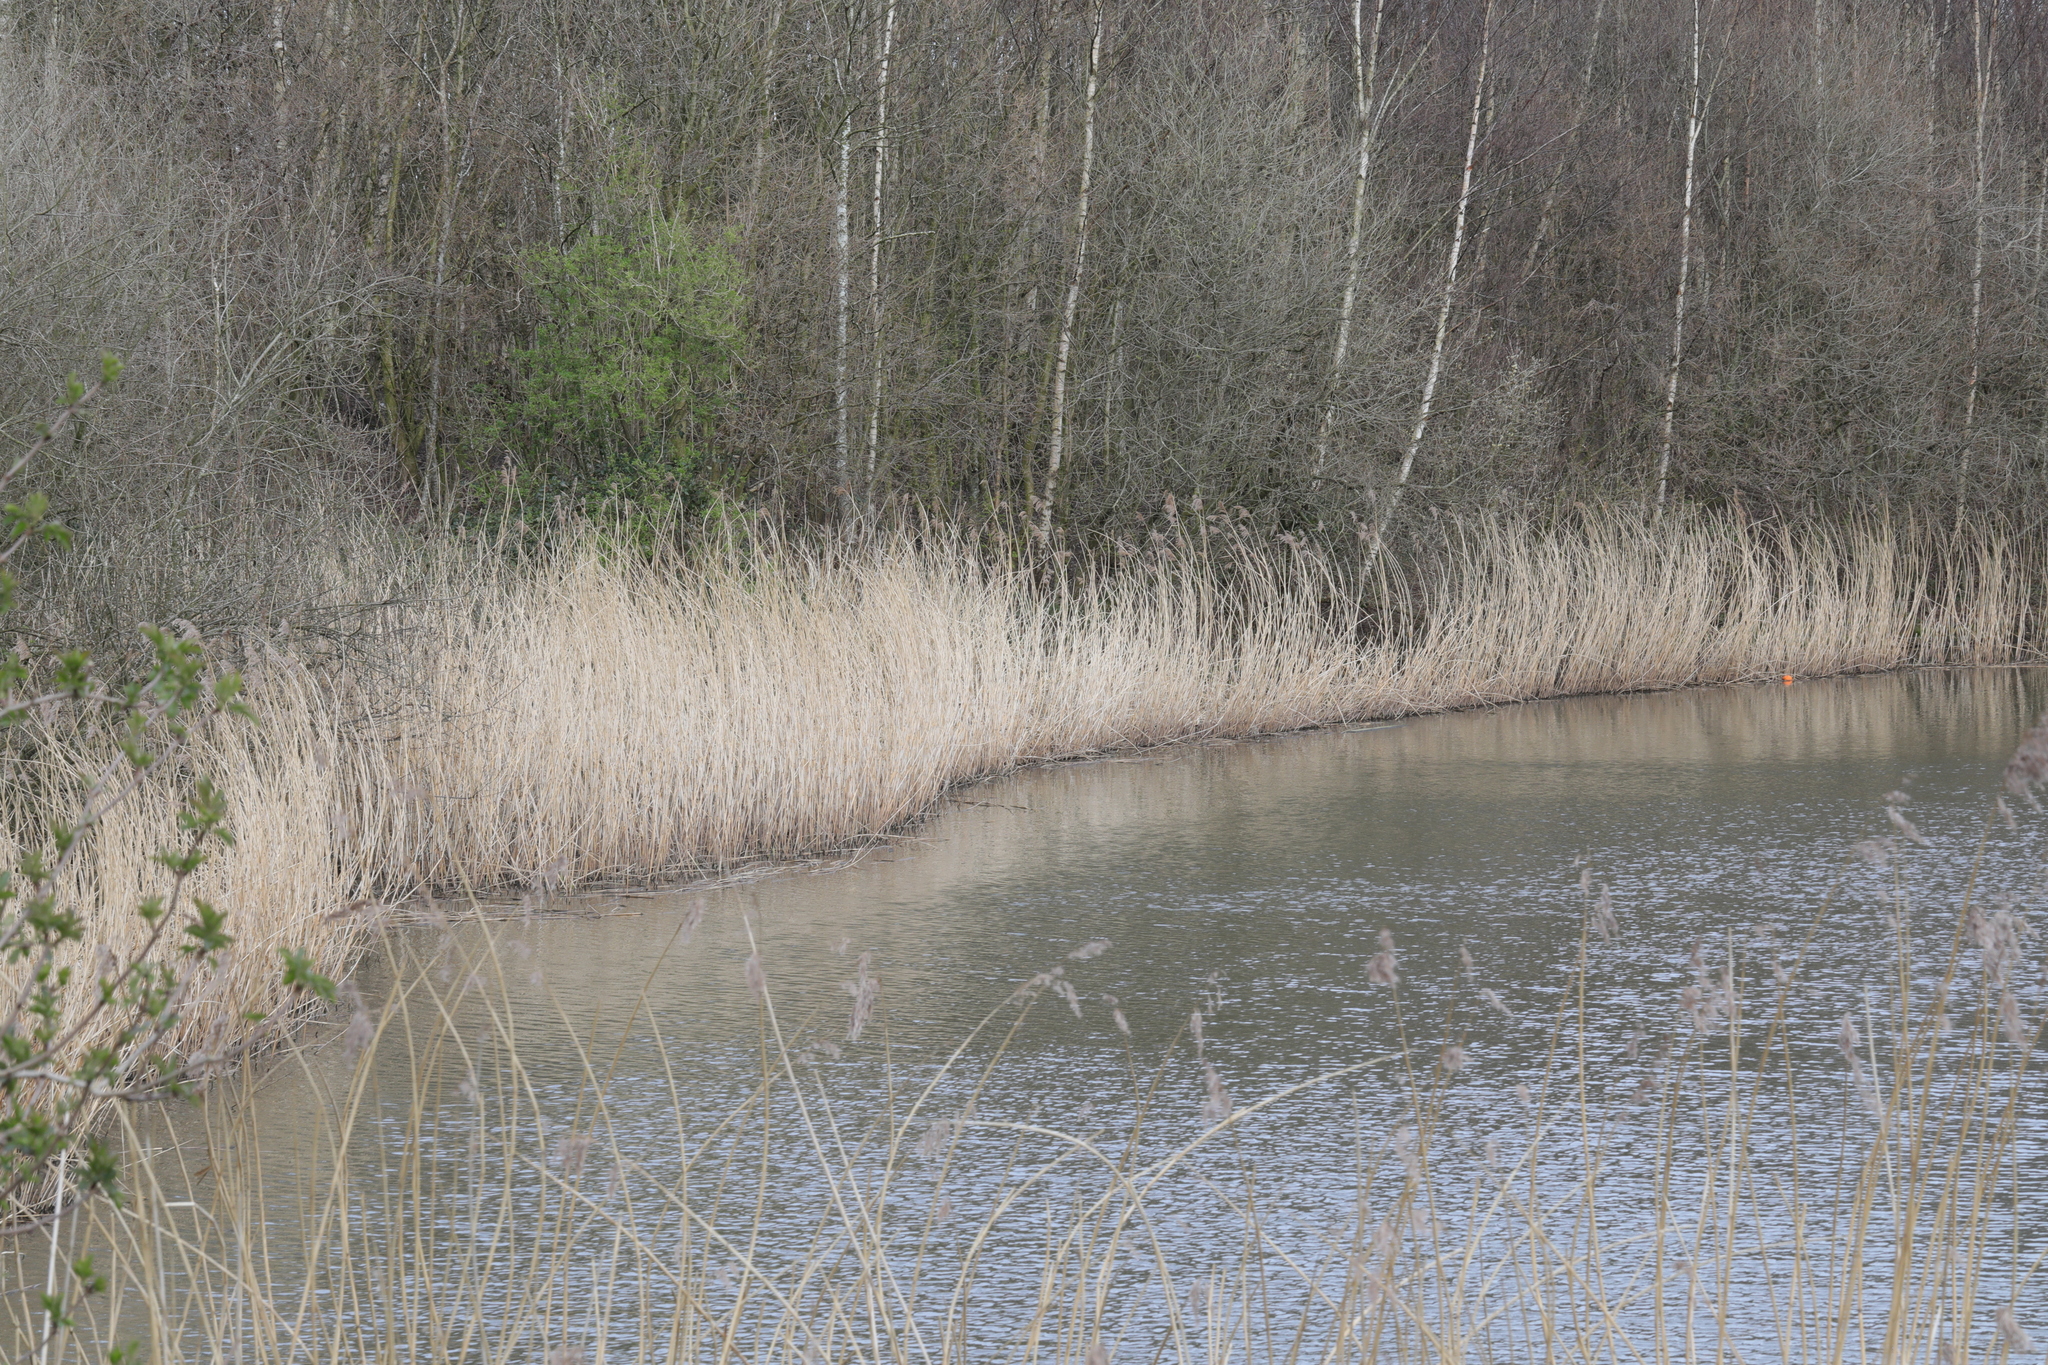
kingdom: Plantae
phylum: Tracheophyta
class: Liliopsida
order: Poales
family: Poaceae
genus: Phragmites
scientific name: Phragmites australis
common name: Common reed
